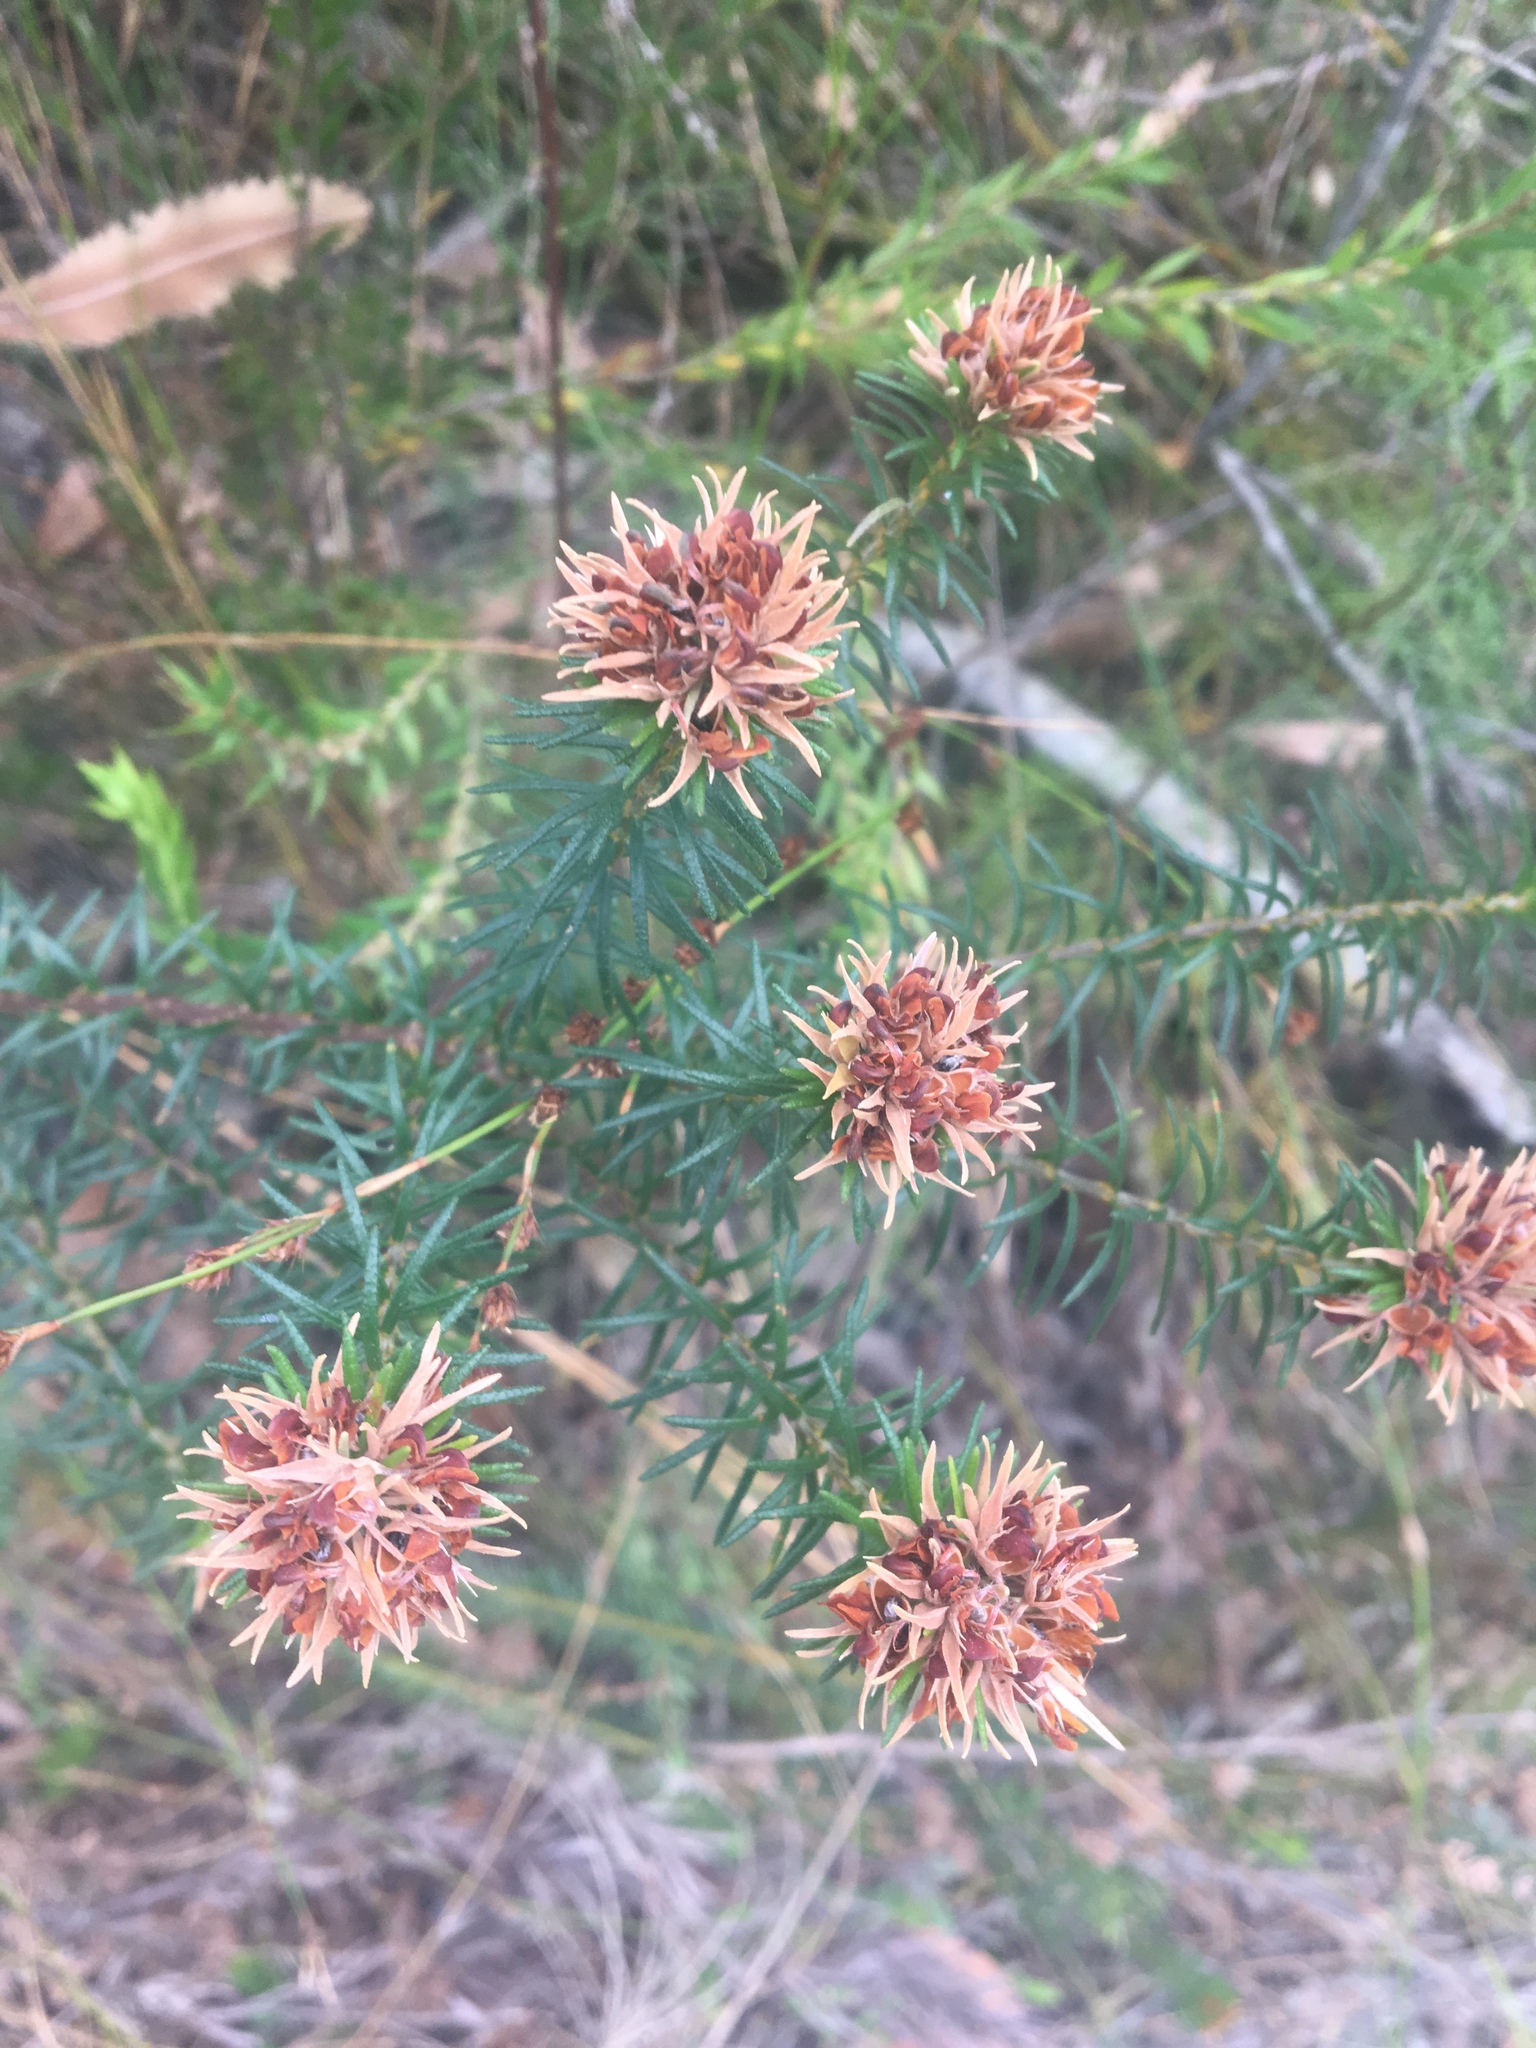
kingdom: Plantae
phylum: Tracheophyta
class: Magnoliopsida
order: Fabales
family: Fabaceae
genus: Phyllota
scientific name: Phyllota phylicoides
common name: Heath phyllota
